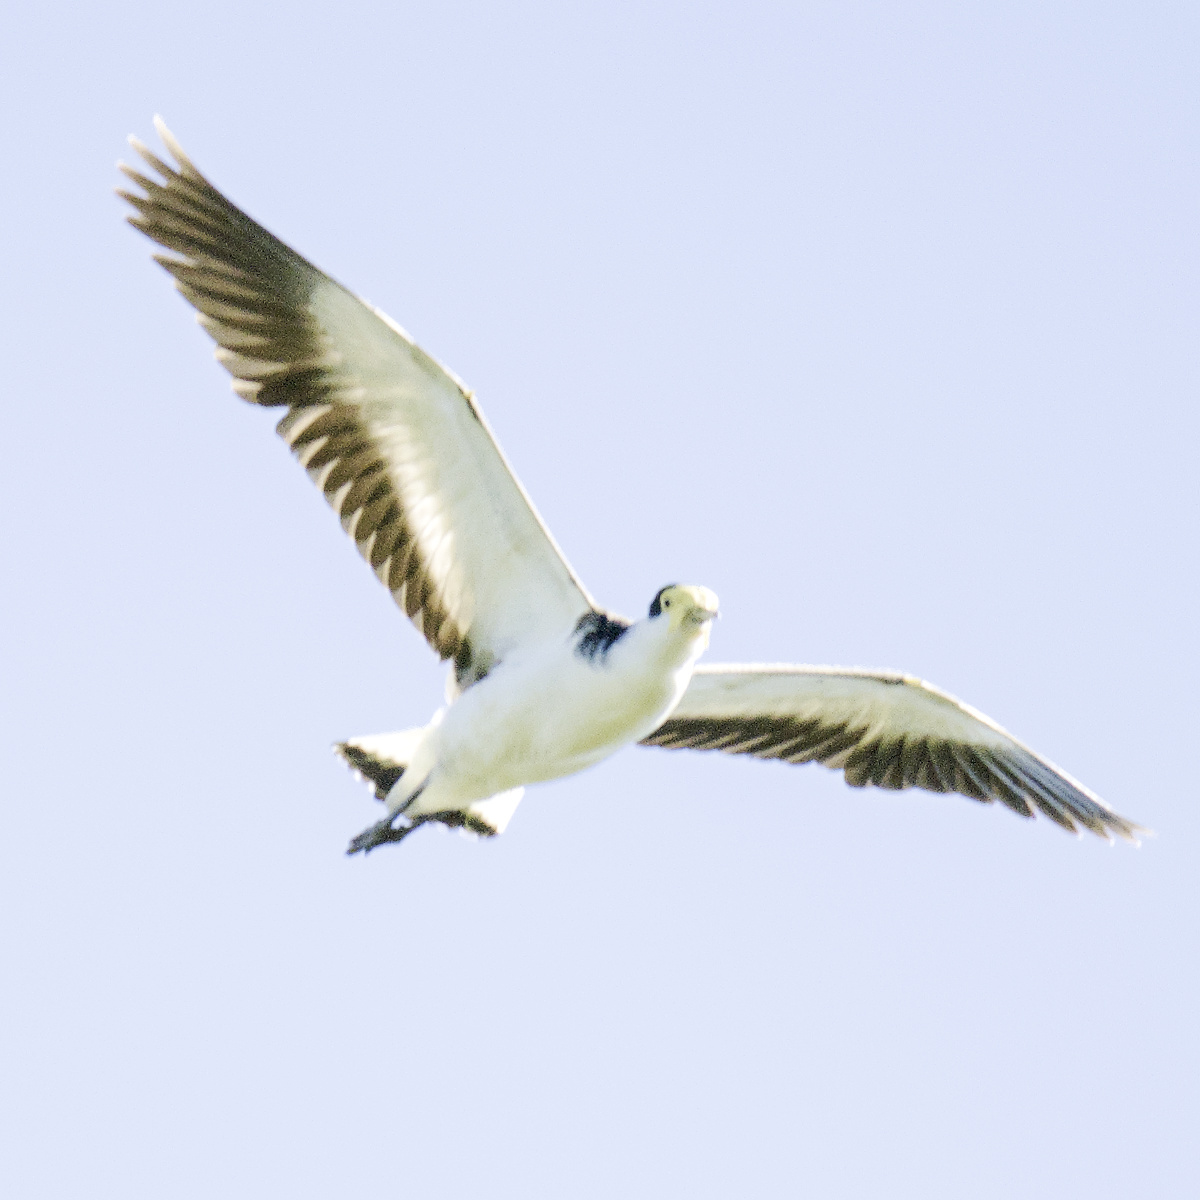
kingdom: Animalia
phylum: Chordata
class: Aves
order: Charadriiformes
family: Charadriidae
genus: Vanellus
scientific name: Vanellus miles
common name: Masked lapwing
